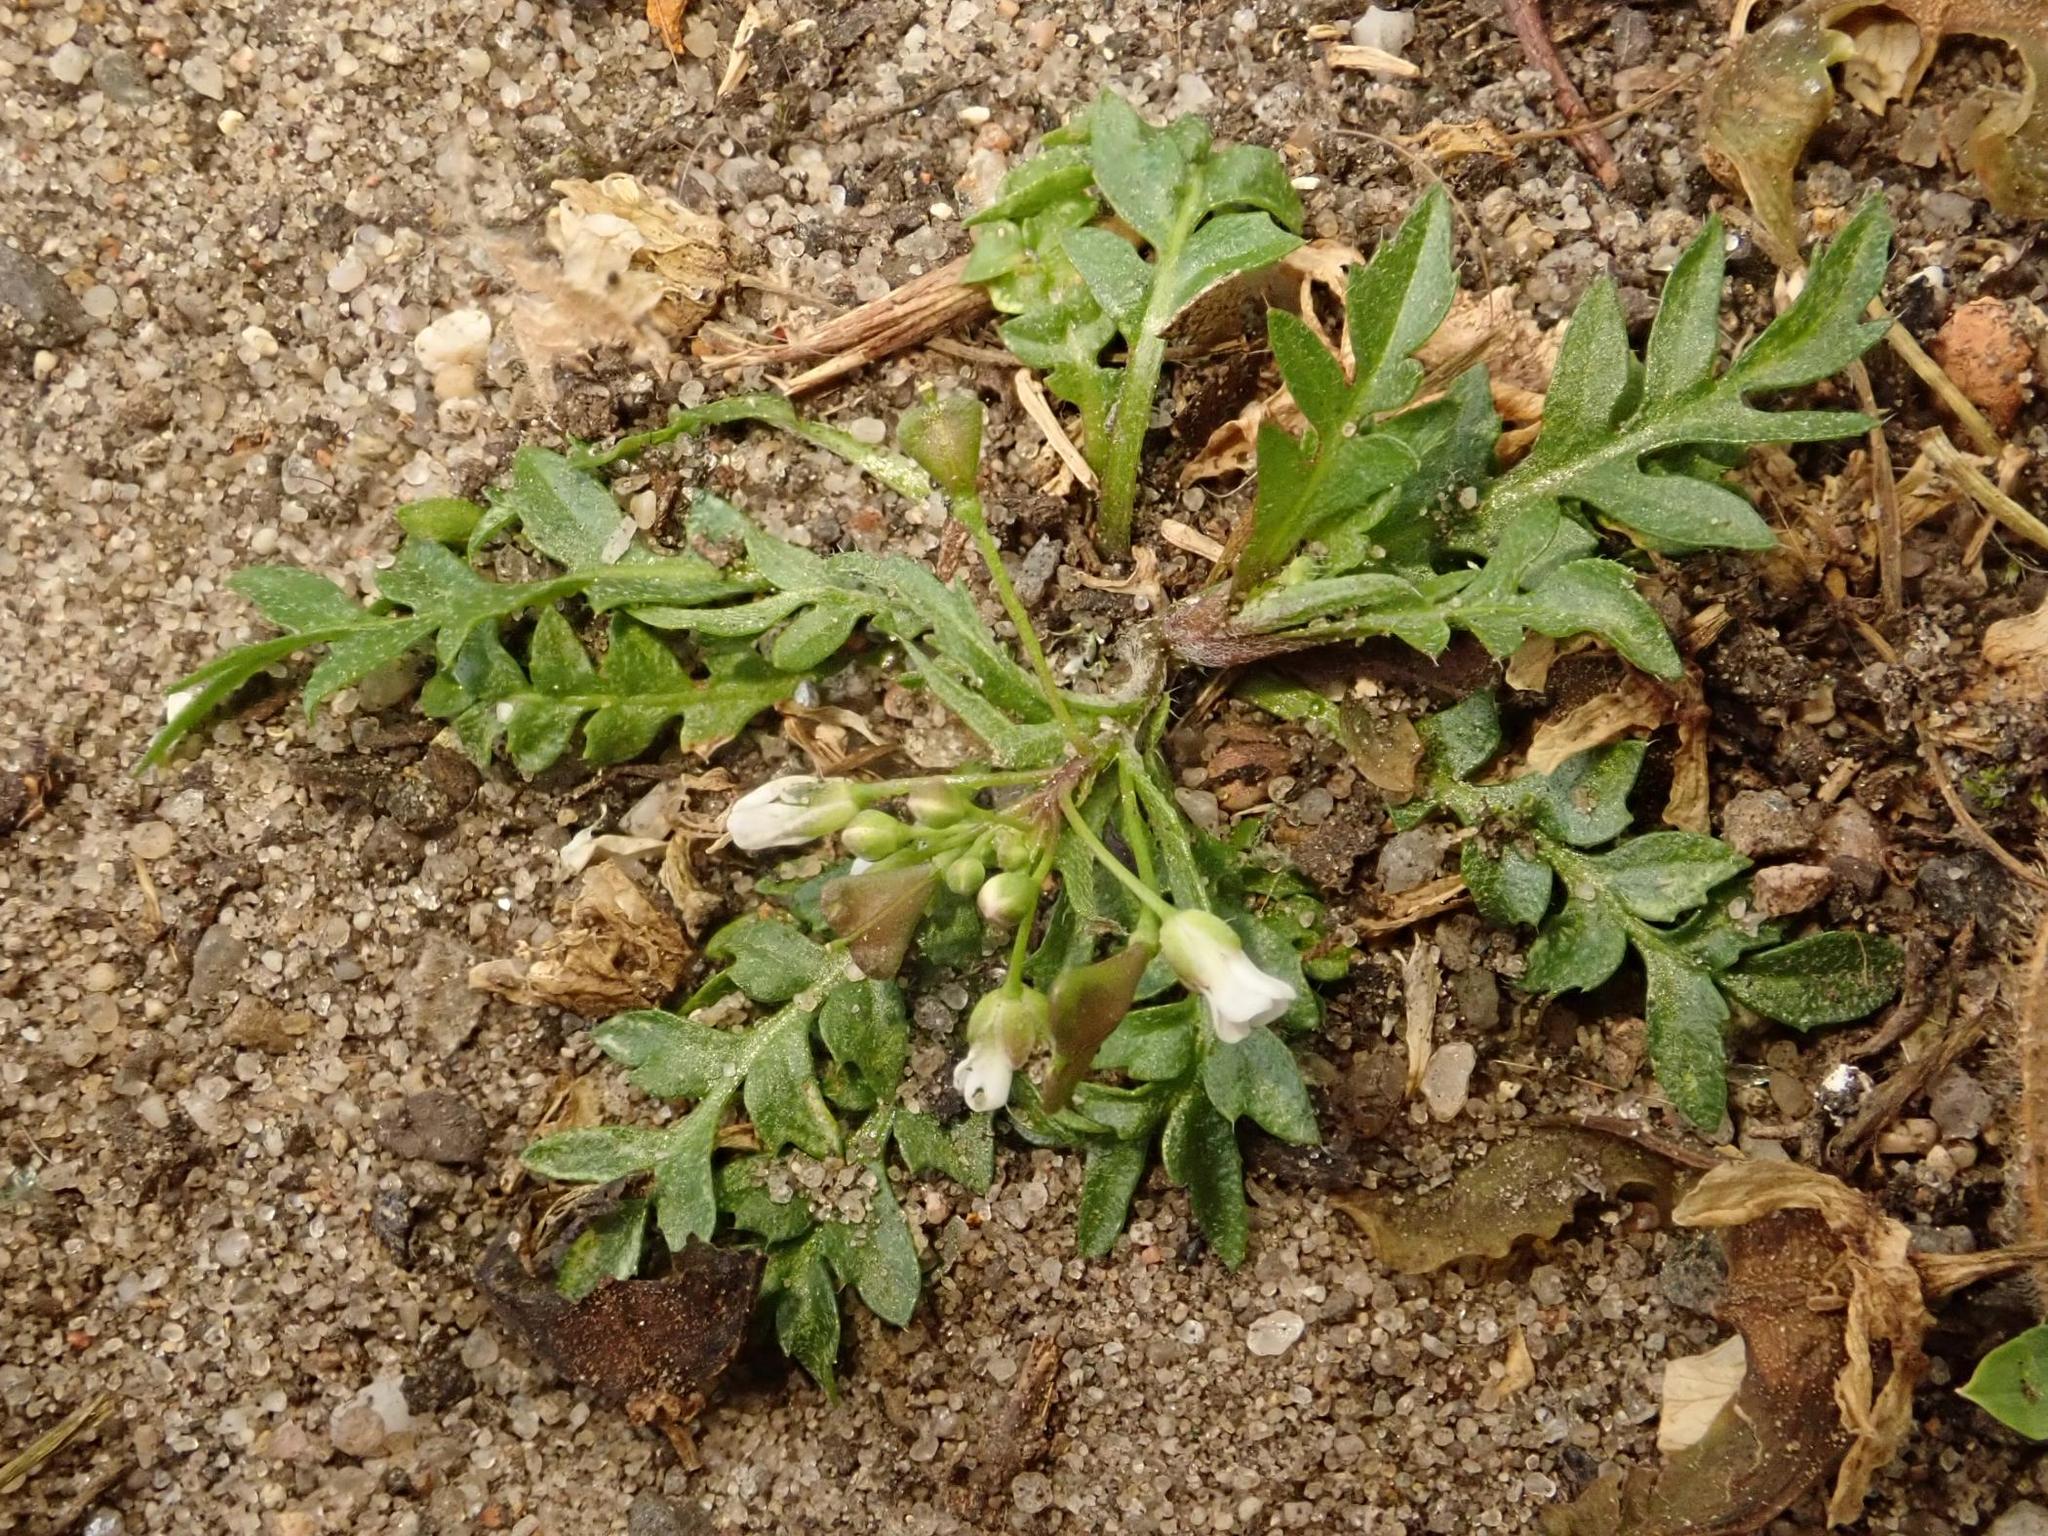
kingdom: Plantae
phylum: Tracheophyta
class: Magnoliopsida
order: Brassicales
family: Brassicaceae
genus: Capsella
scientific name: Capsella bursa-pastoris
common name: Shepherd's purse
